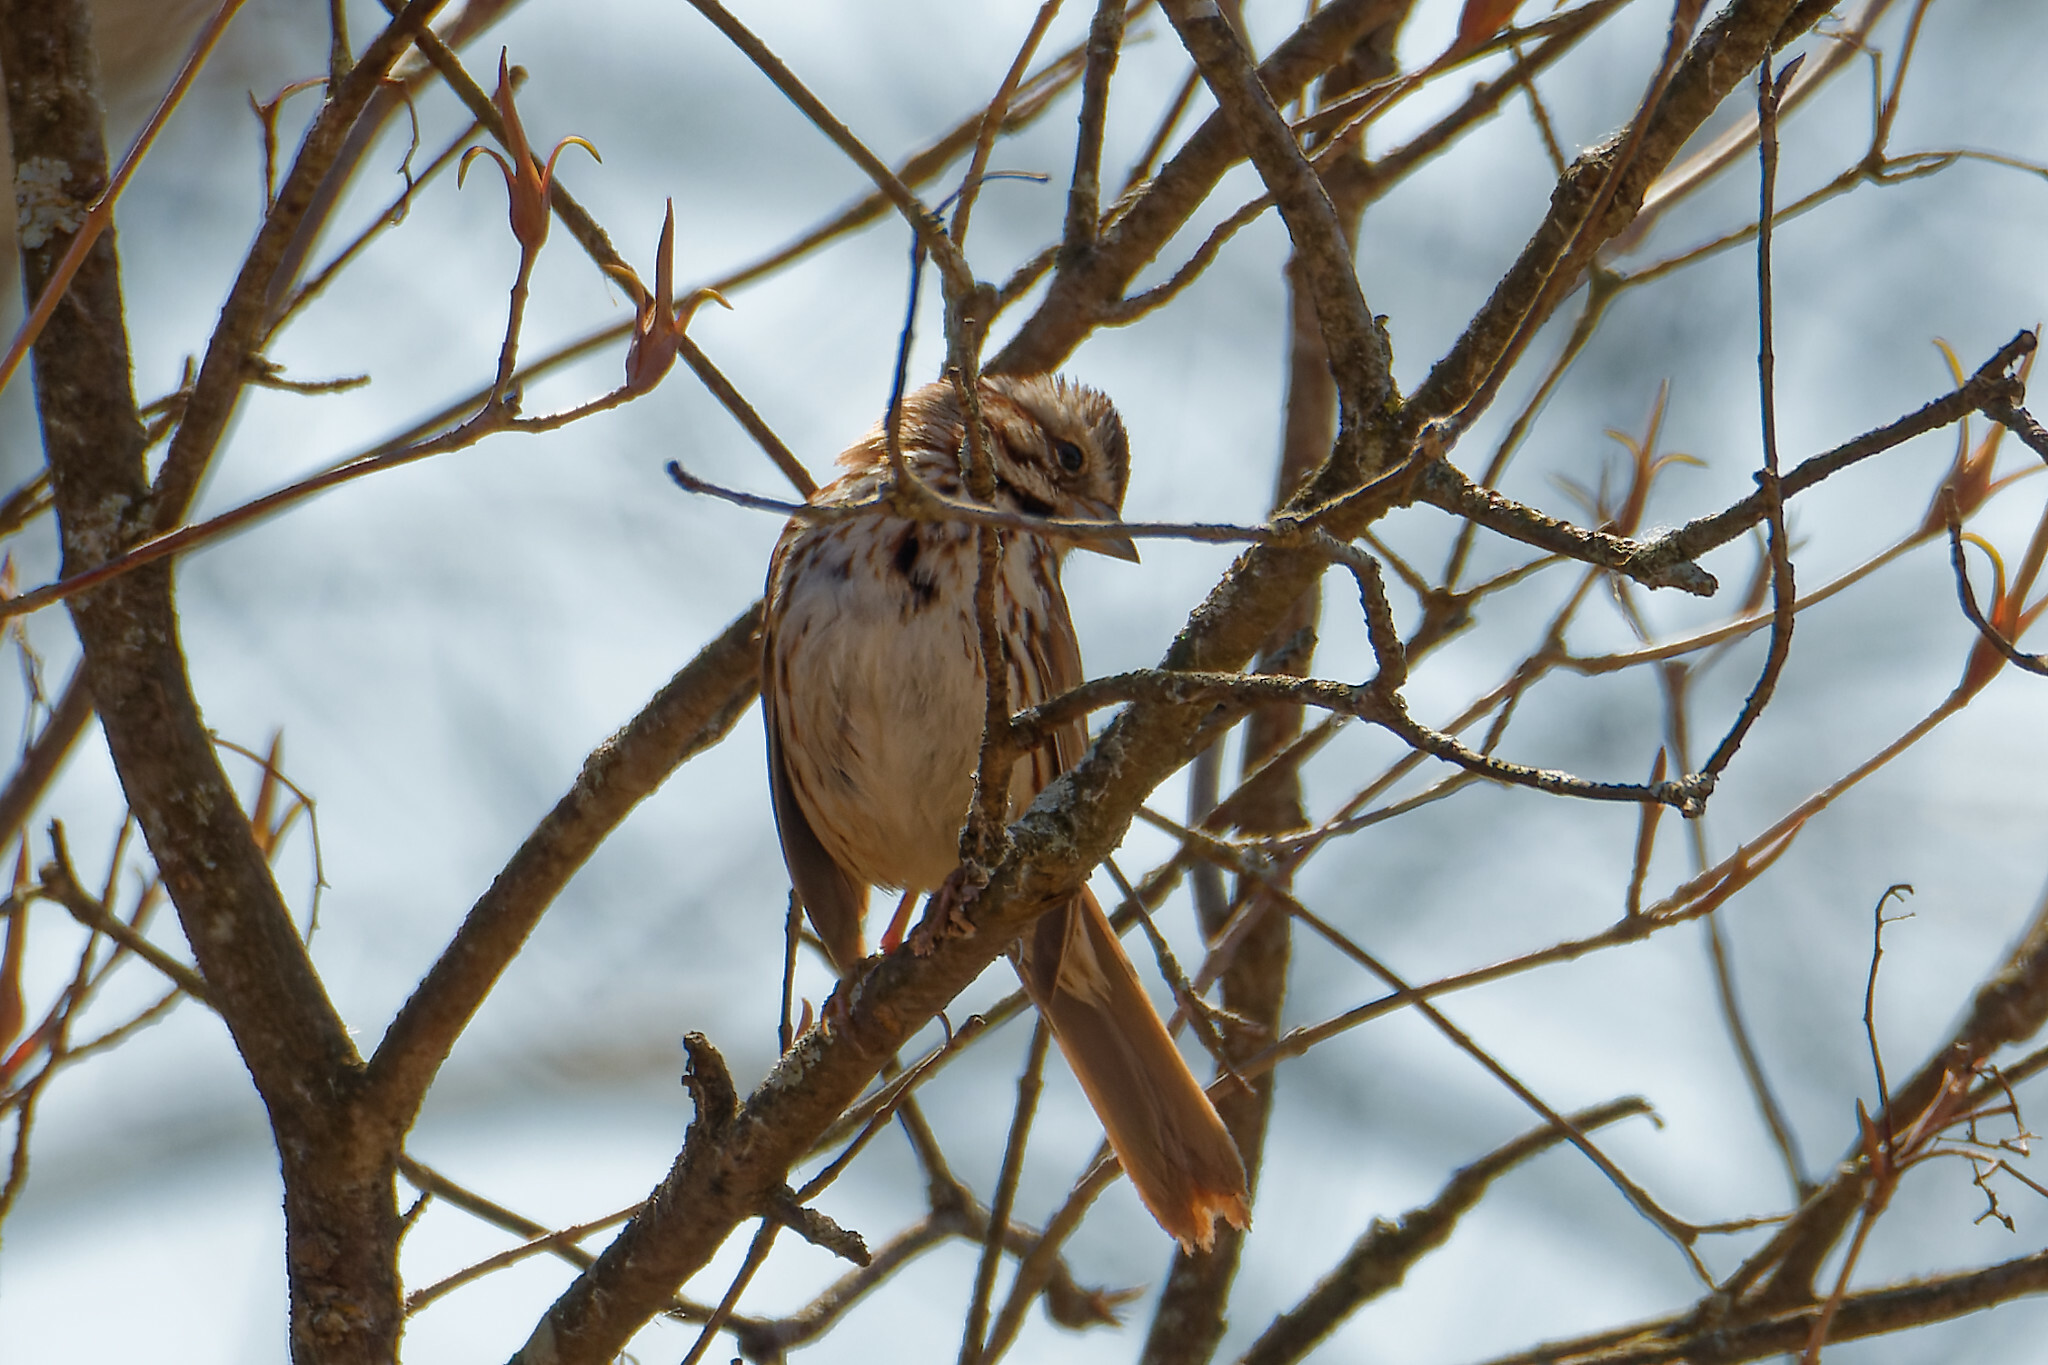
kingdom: Animalia
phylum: Chordata
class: Aves
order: Passeriformes
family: Passerellidae
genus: Melospiza
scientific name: Melospiza melodia
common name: Song sparrow
